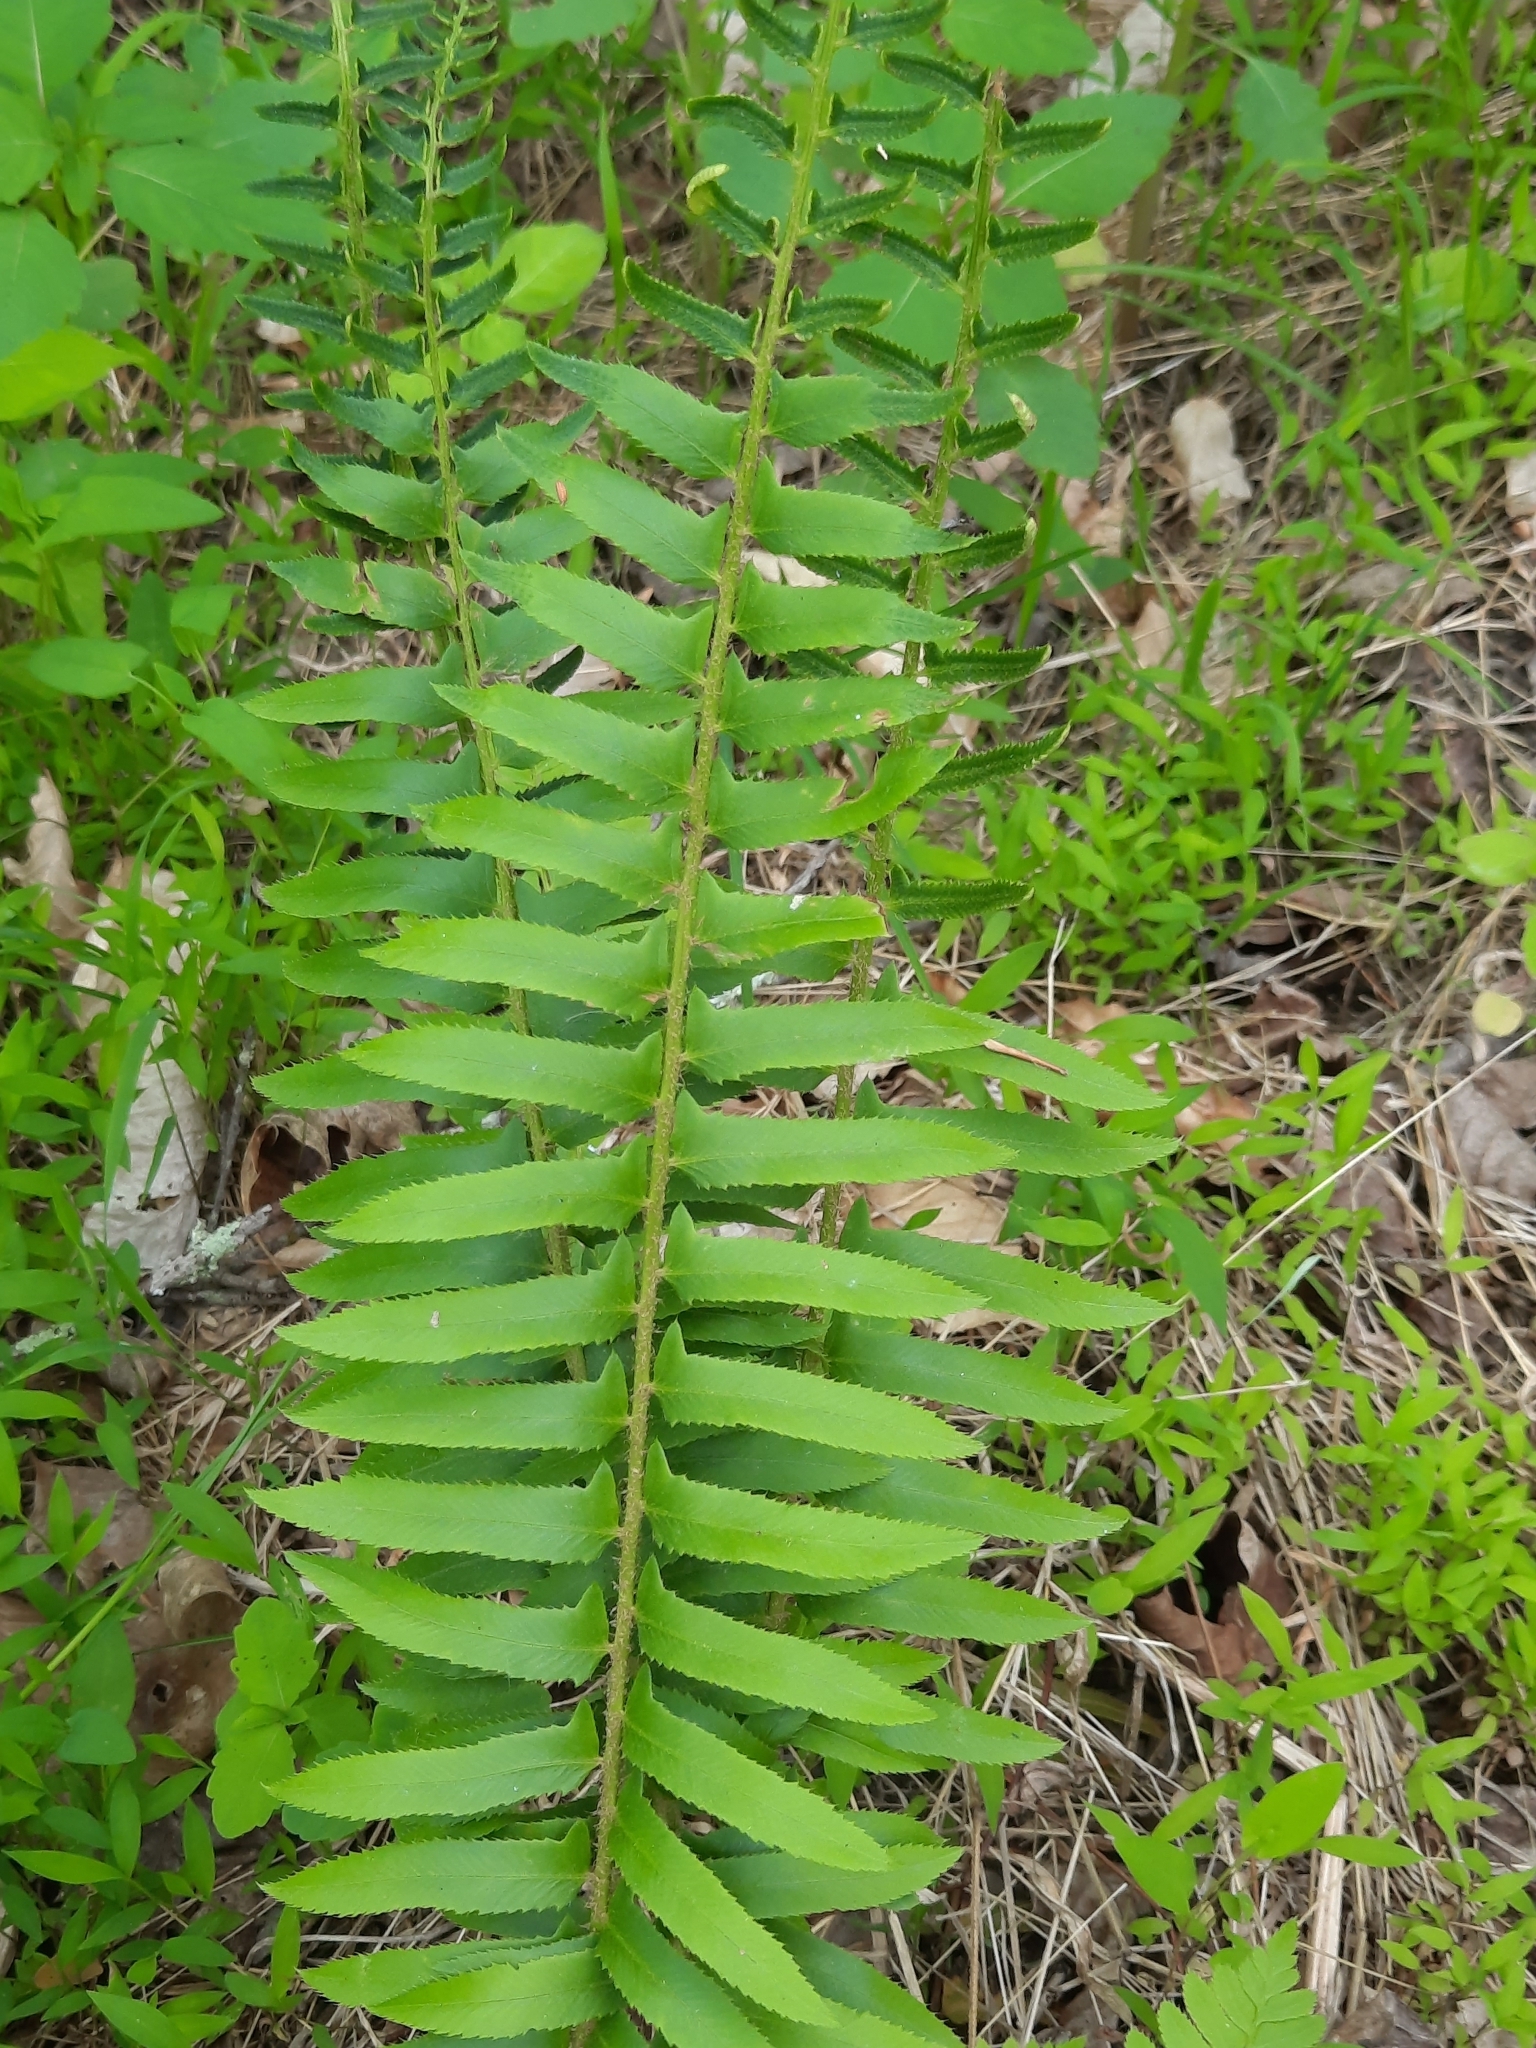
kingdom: Plantae
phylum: Tracheophyta
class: Polypodiopsida
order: Polypodiales
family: Dryopteridaceae
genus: Polystichum
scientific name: Polystichum acrostichoides
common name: Christmas fern
